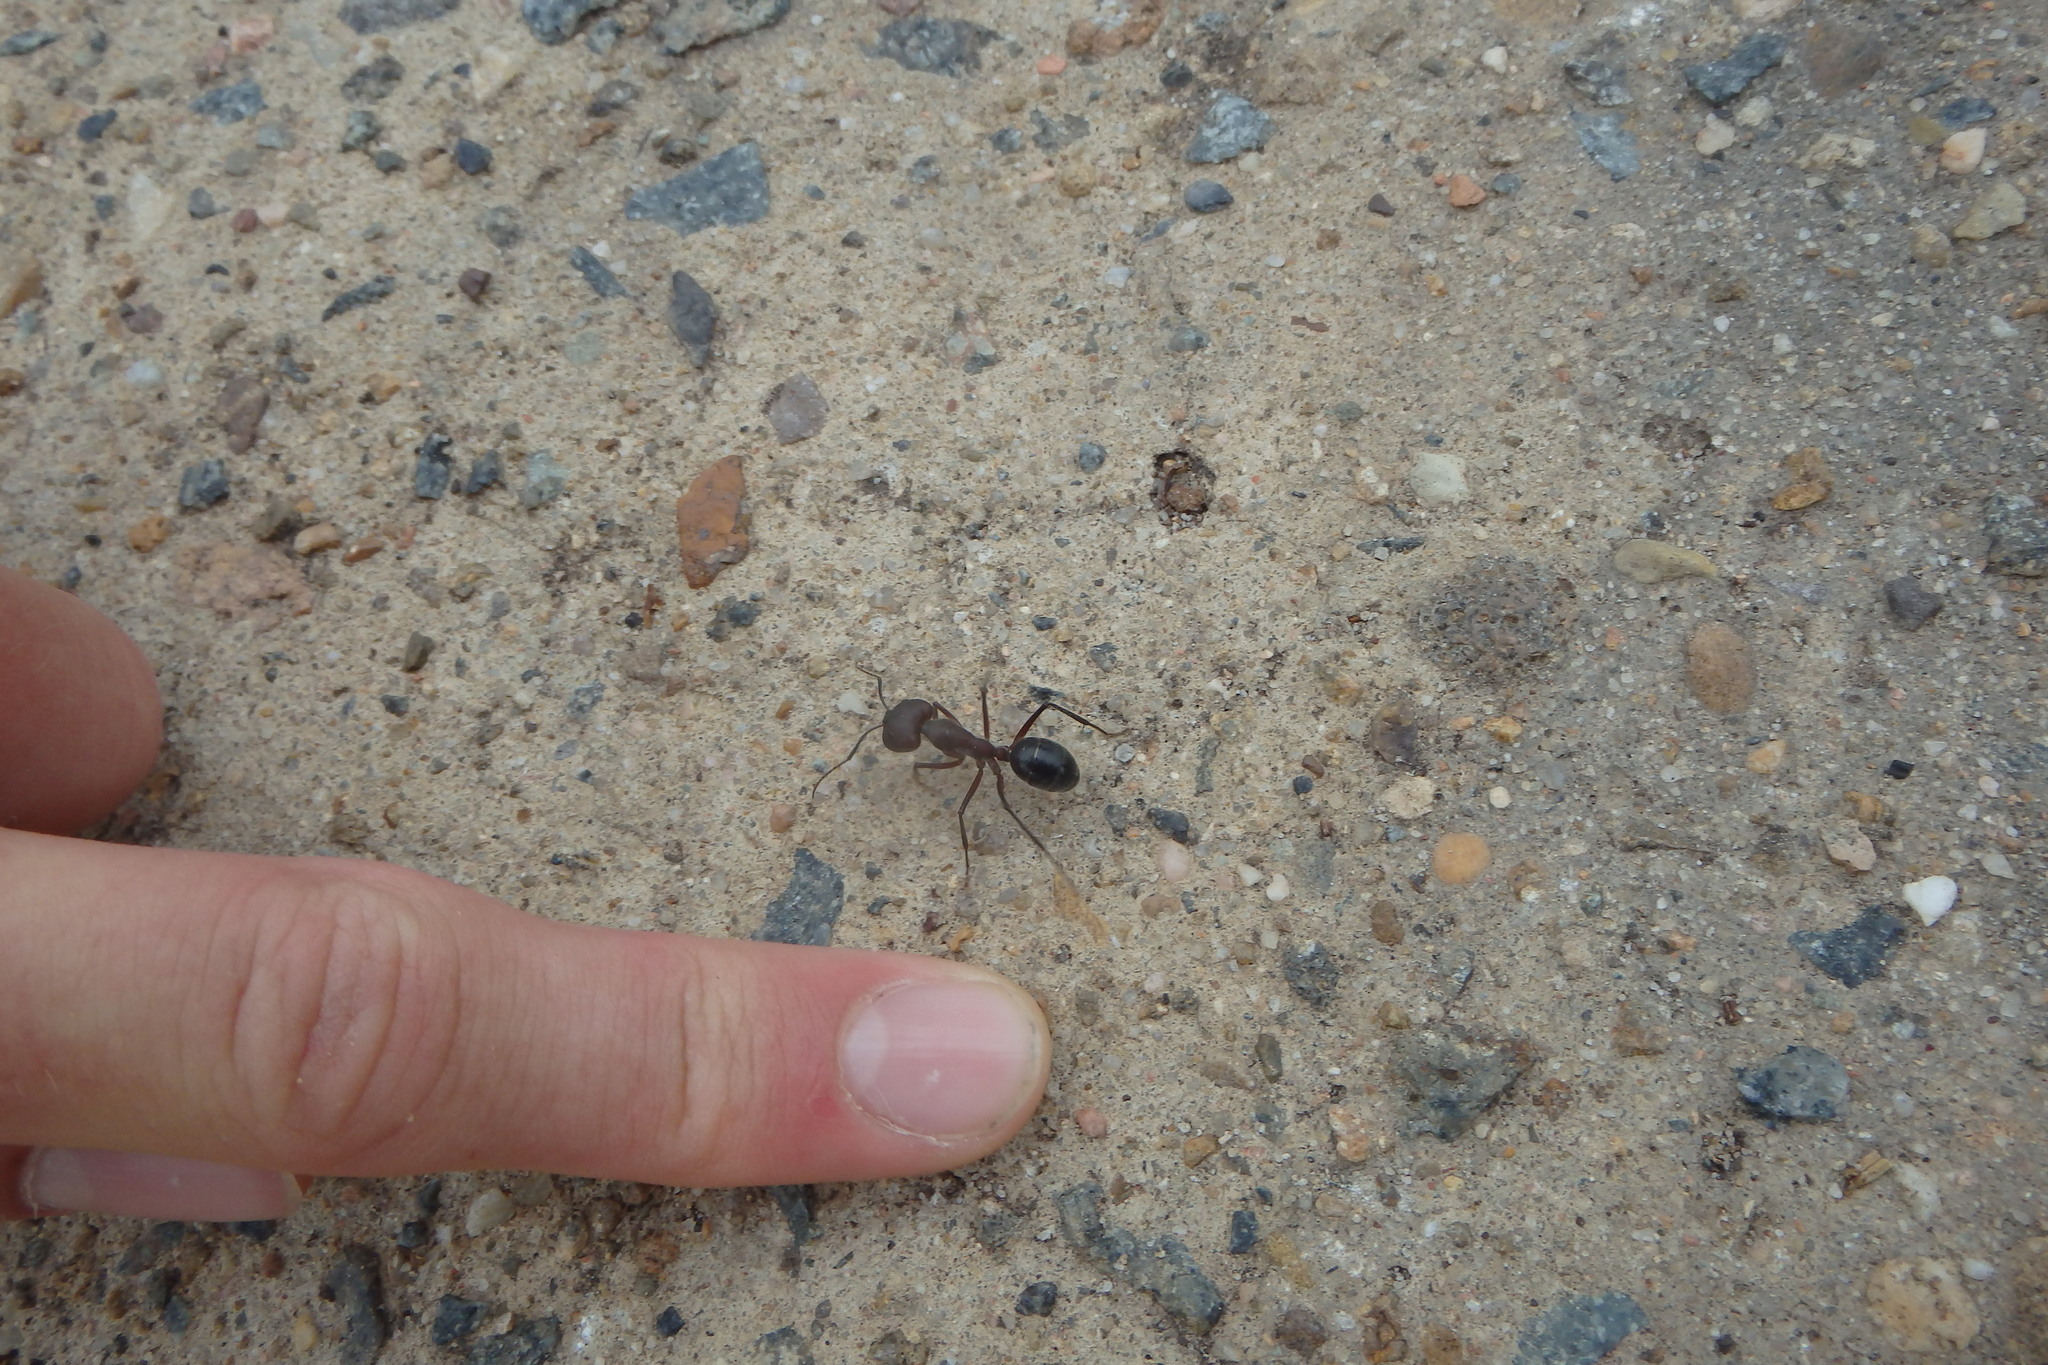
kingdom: Animalia
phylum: Arthropoda
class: Insecta
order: Hymenoptera
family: Formicidae
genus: Camponotus
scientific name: Camponotus intrepidus
